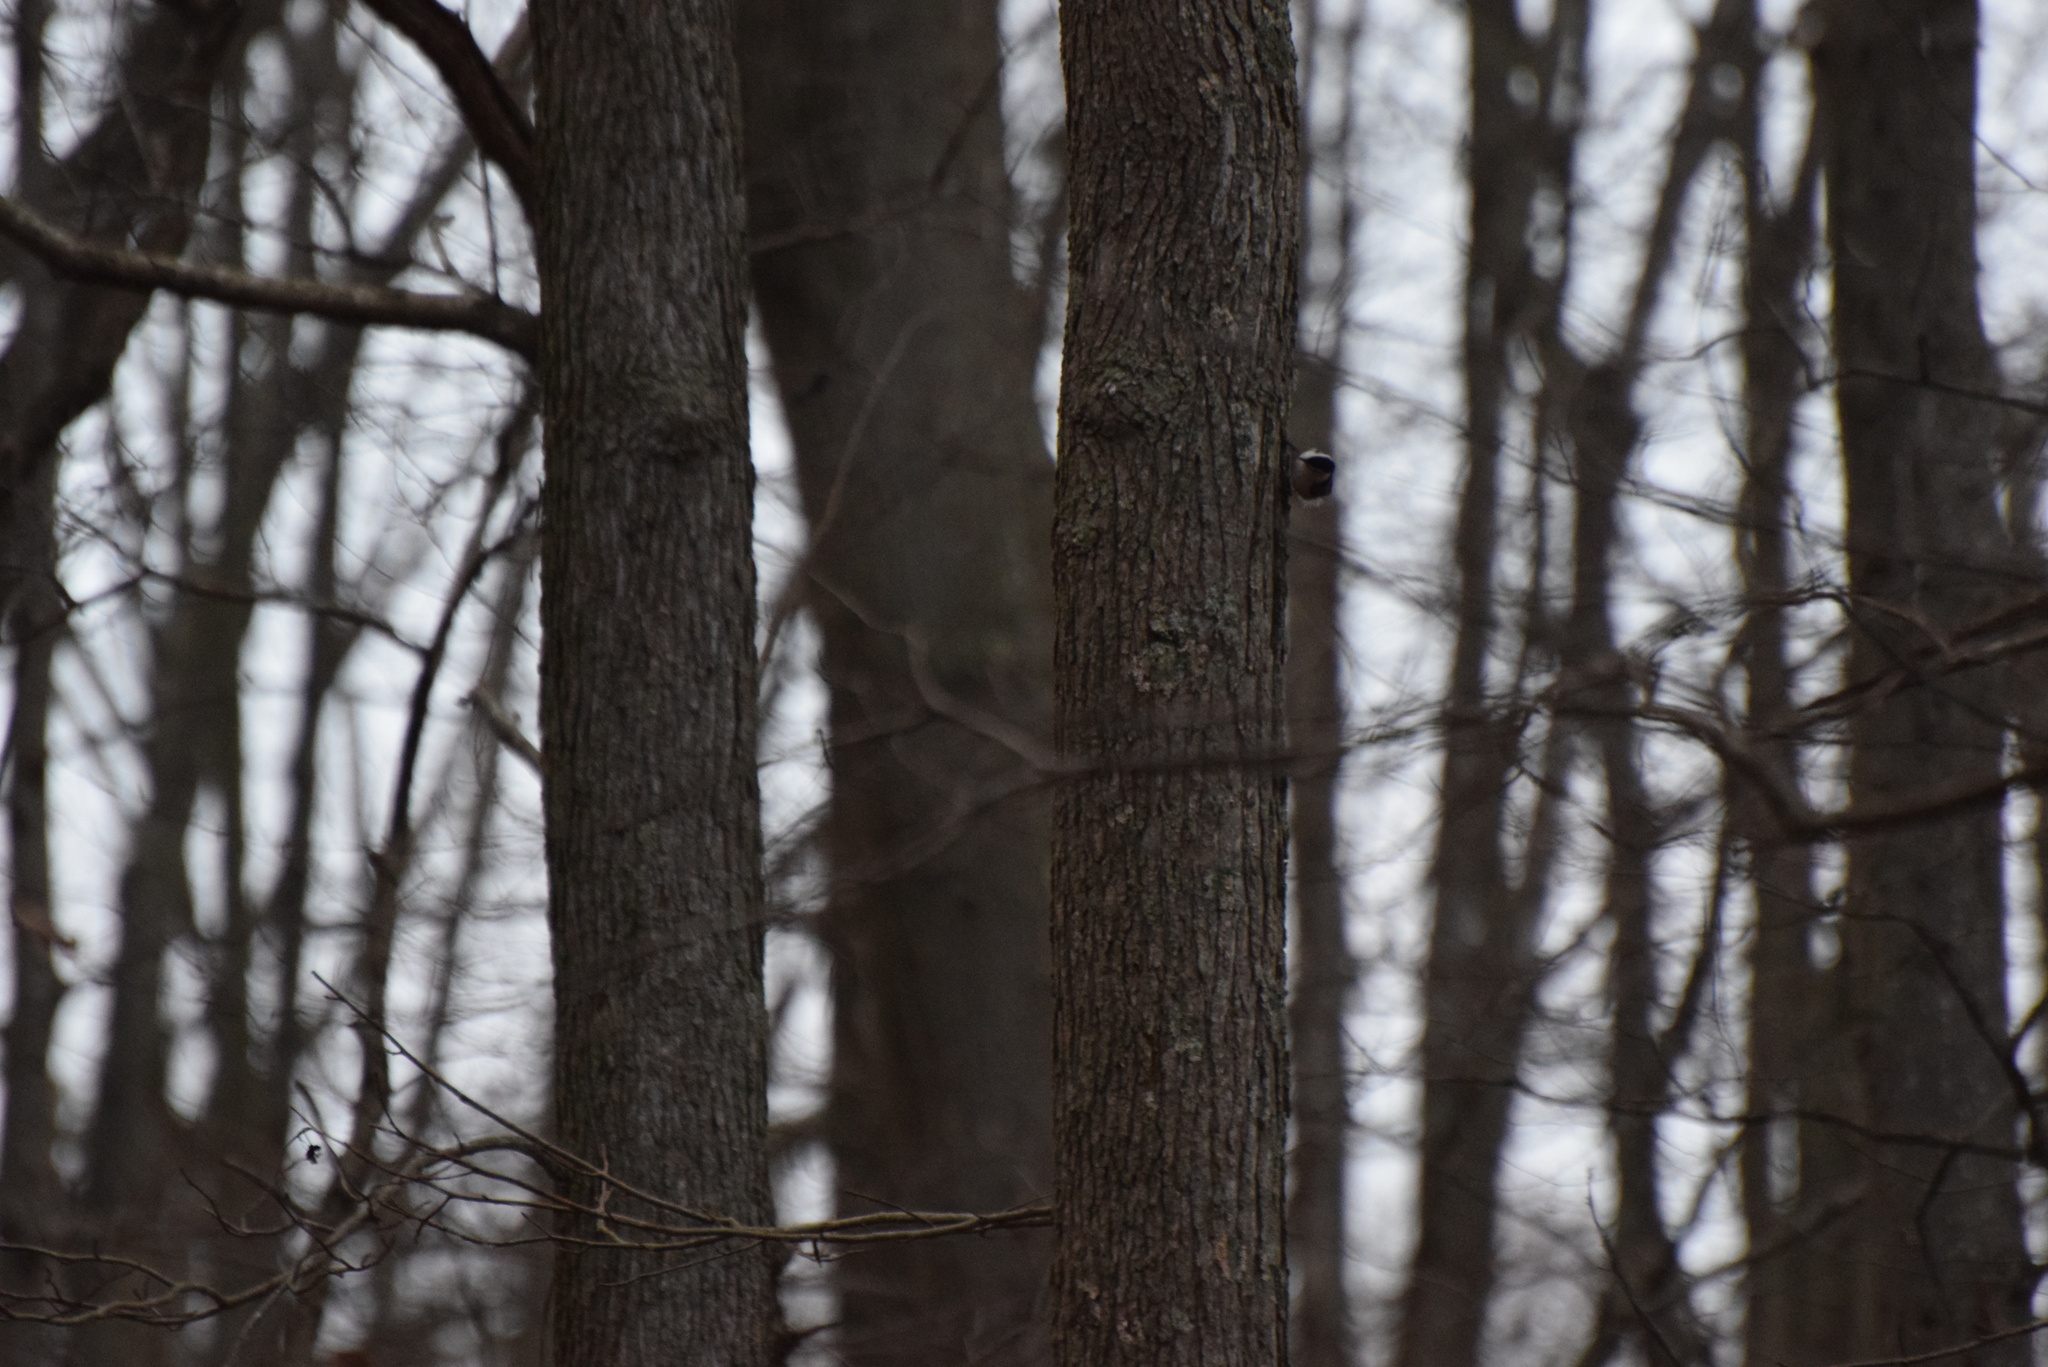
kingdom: Animalia
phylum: Chordata
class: Aves
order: Passeriformes
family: Sittidae
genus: Sitta
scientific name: Sitta carolinensis
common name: White-breasted nuthatch
